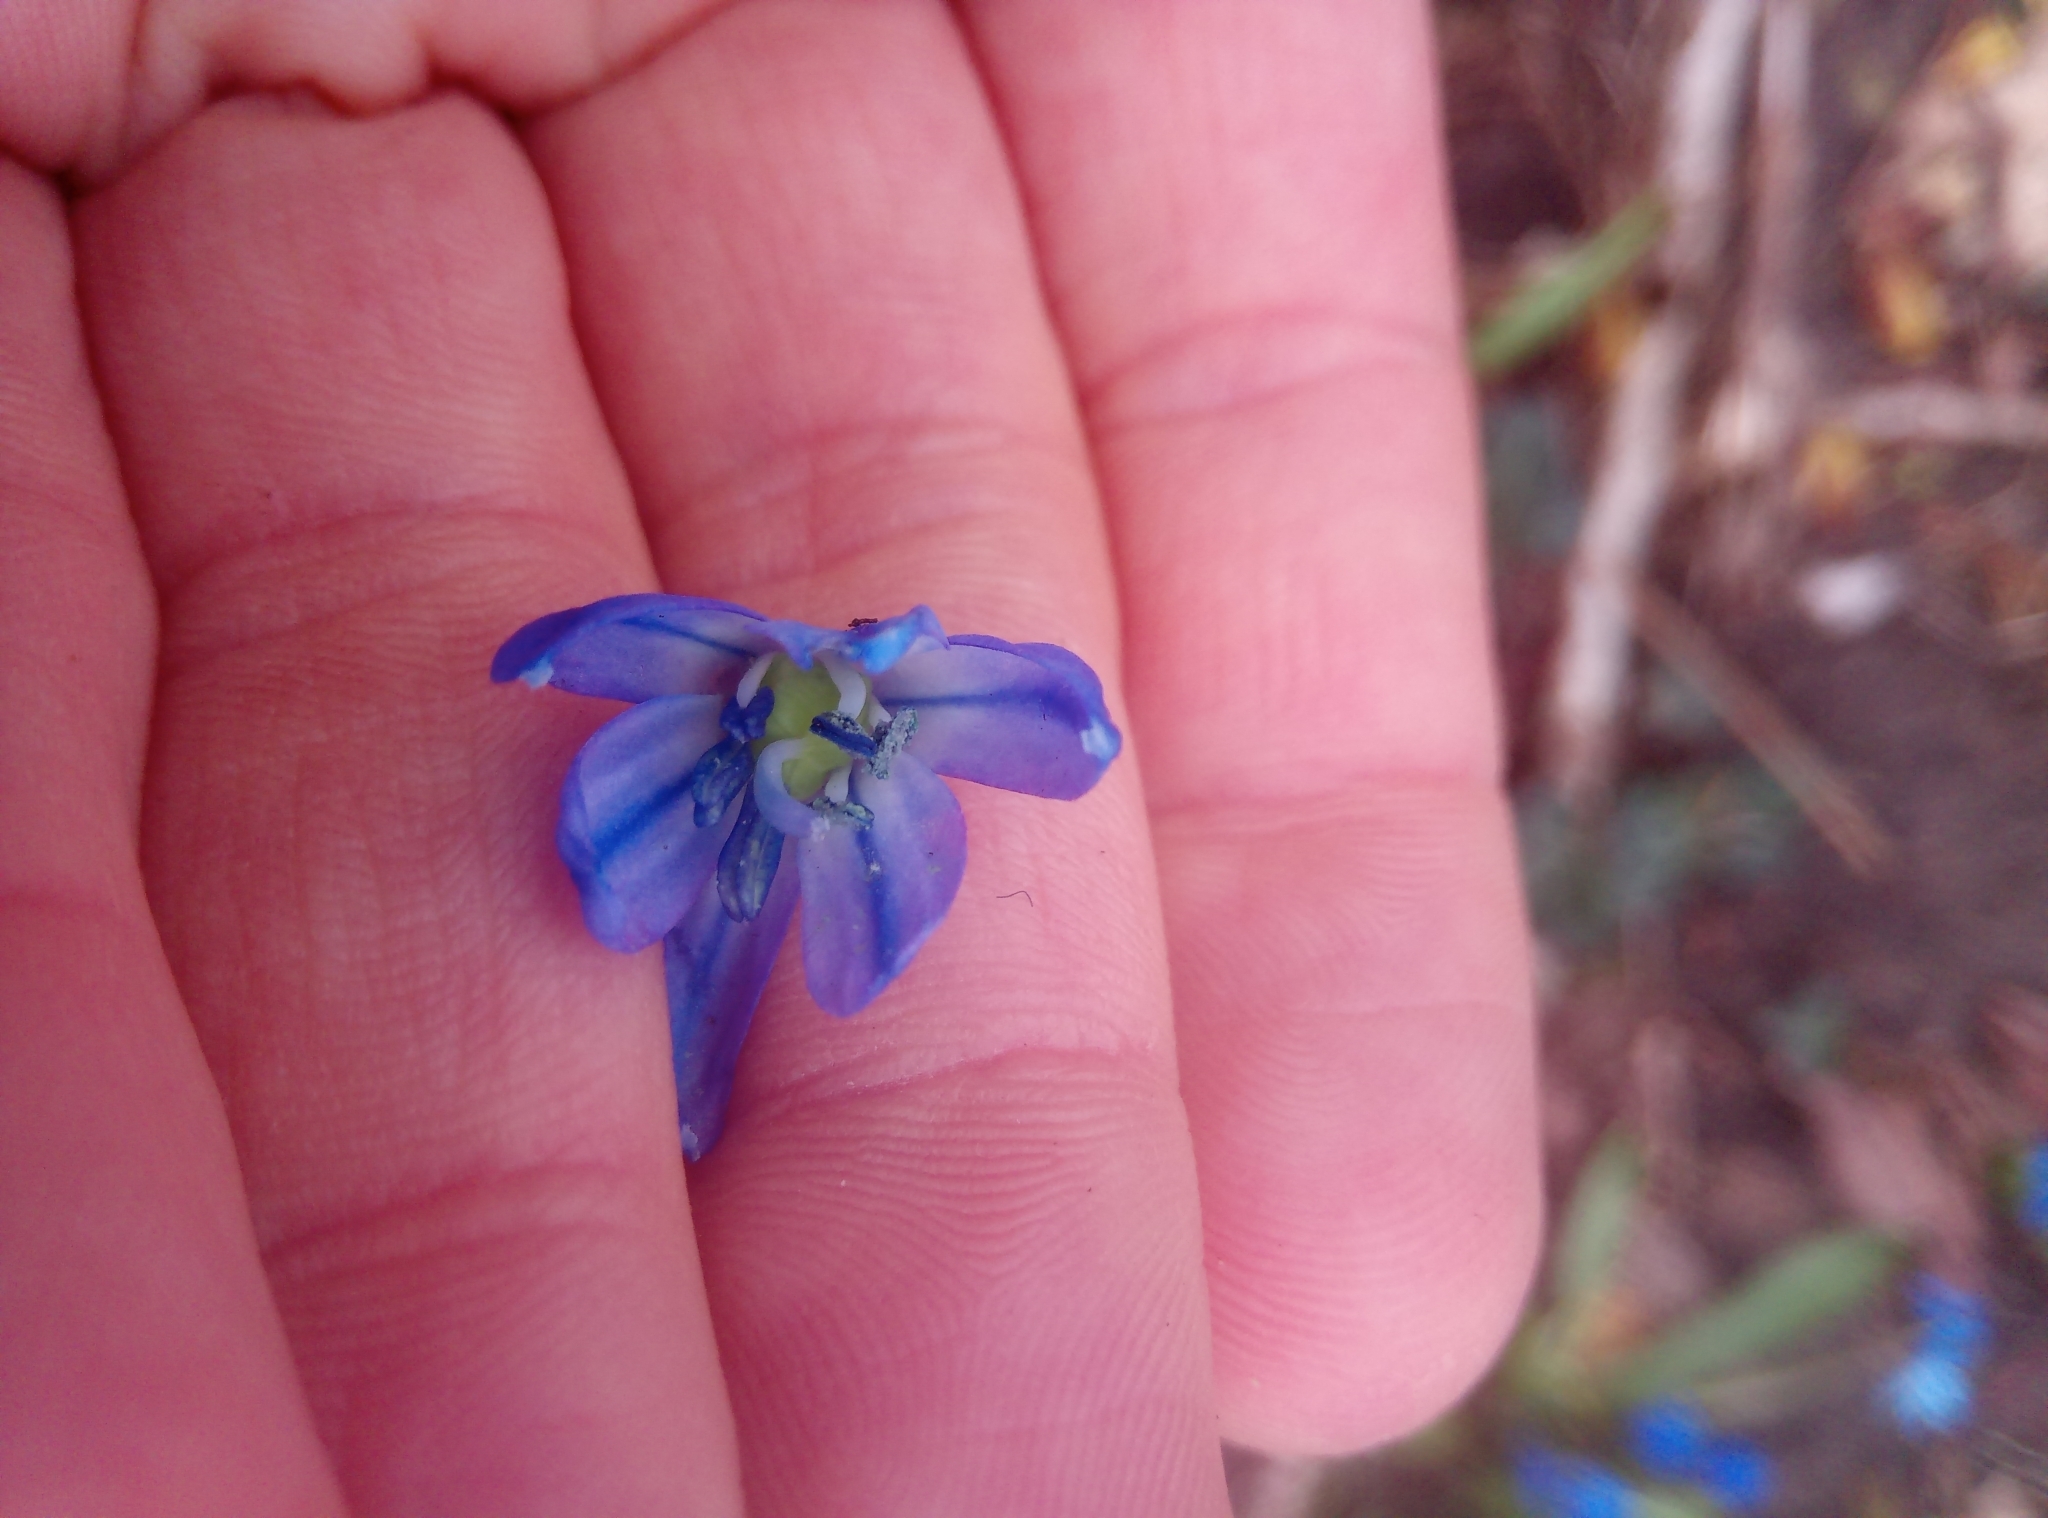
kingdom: Plantae
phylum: Tracheophyta
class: Liliopsida
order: Asparagales
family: Asparagaceae
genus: Scilla
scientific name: Scilla siberica
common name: Siberian squill
